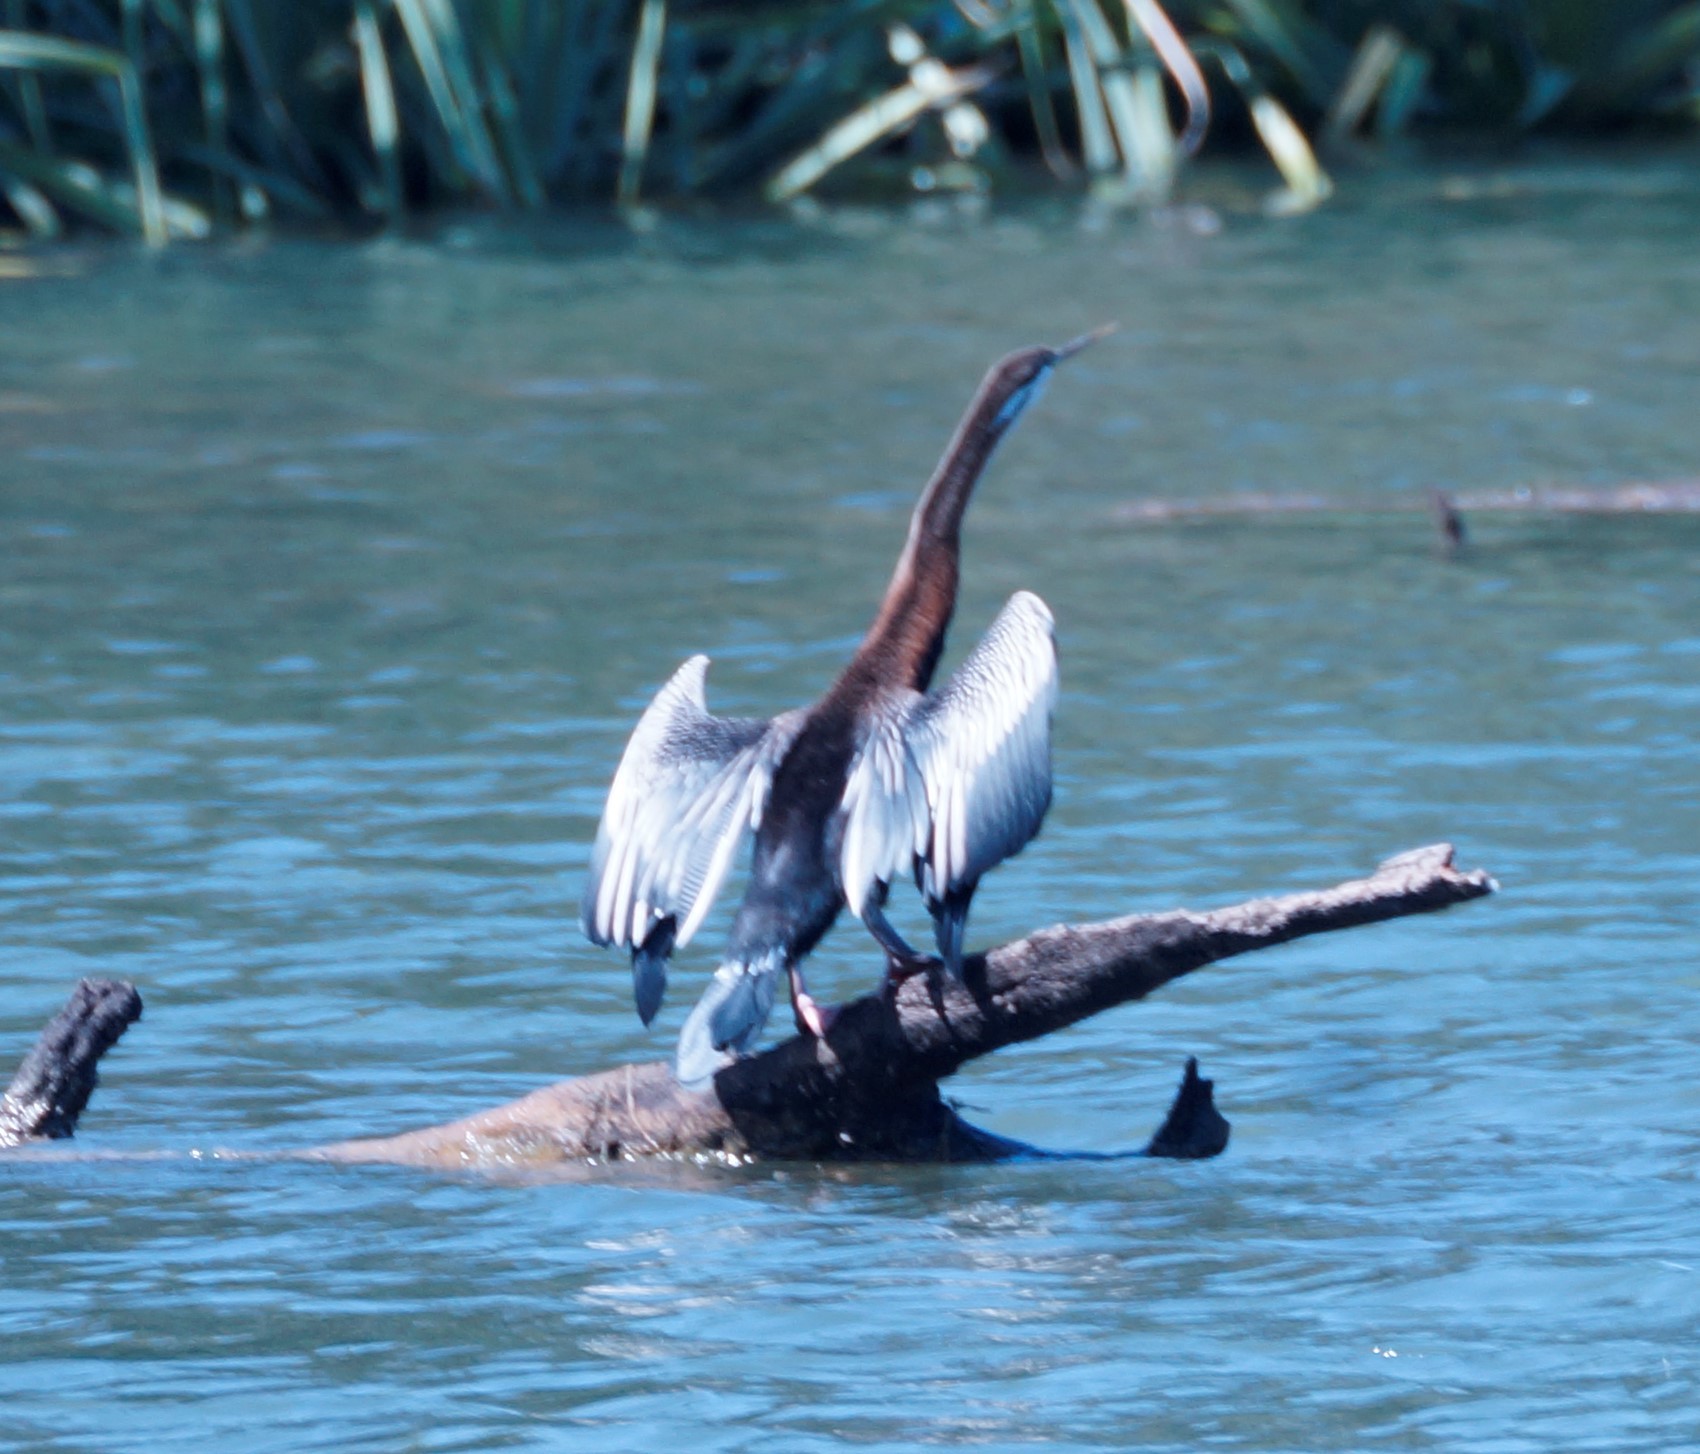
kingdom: Animalia
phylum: Chordata
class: Aves
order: Suliformes
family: Anhingidae
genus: Anhinga
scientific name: Anhinga novaehollandiae
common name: Australasian darter
